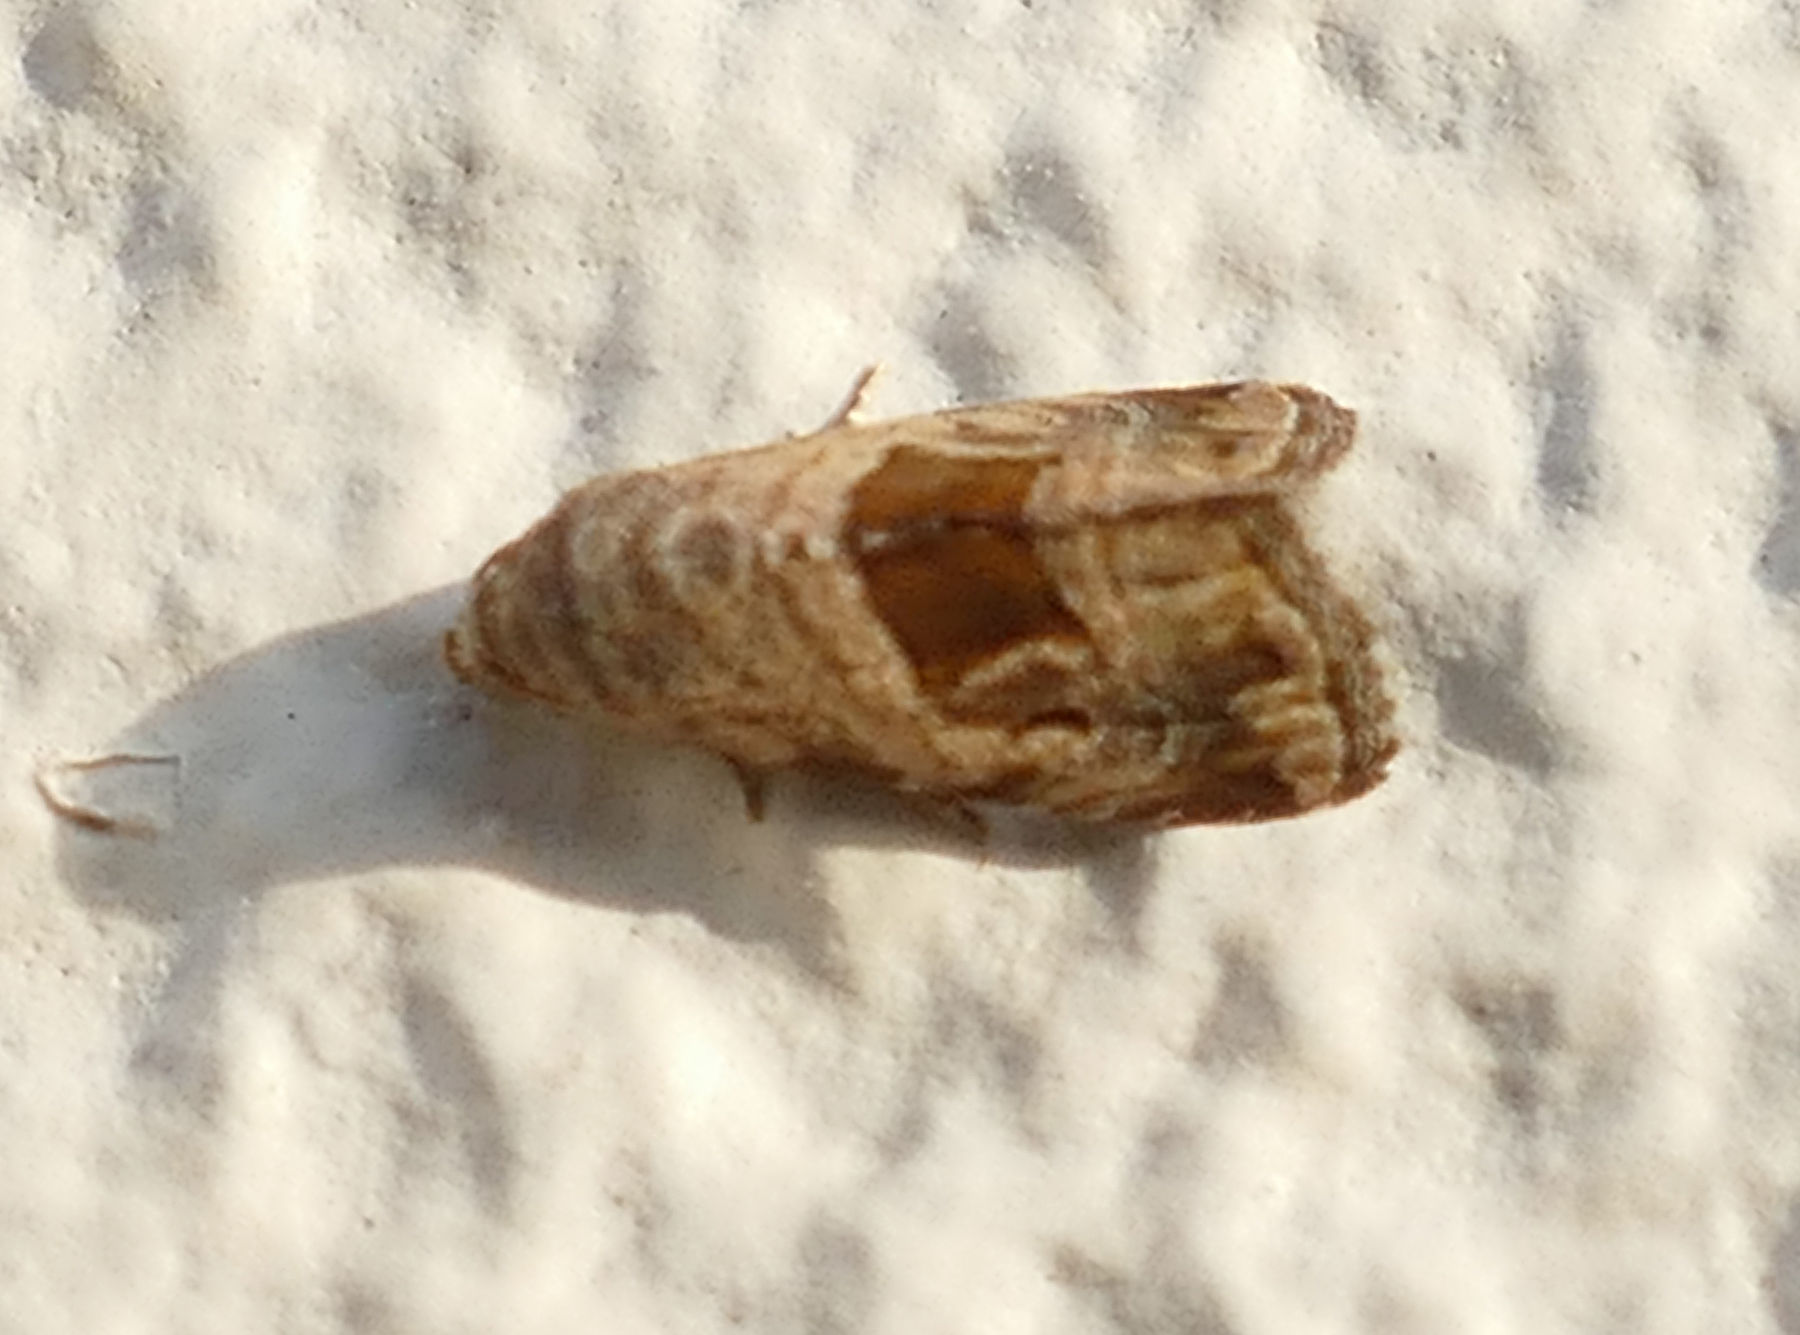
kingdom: Animalia
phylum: Arthropoda
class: Insecta
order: Lepidoptera
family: Noctuidae
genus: Tripudia
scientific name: Tripudia quadrifera
